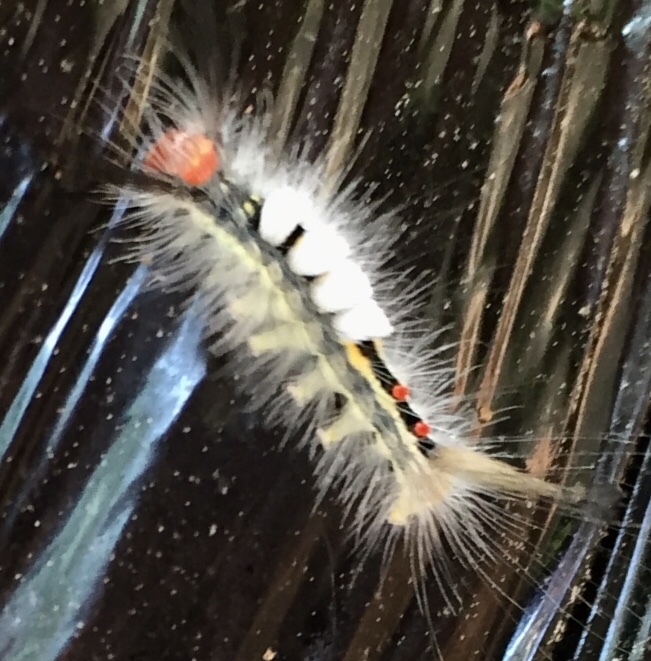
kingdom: Animalia
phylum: Arthropoda
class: Insecta
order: Lepidoptera
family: Erebidae
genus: Orgyia
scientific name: Orgyia leucostigma
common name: White-marked tussock moth
